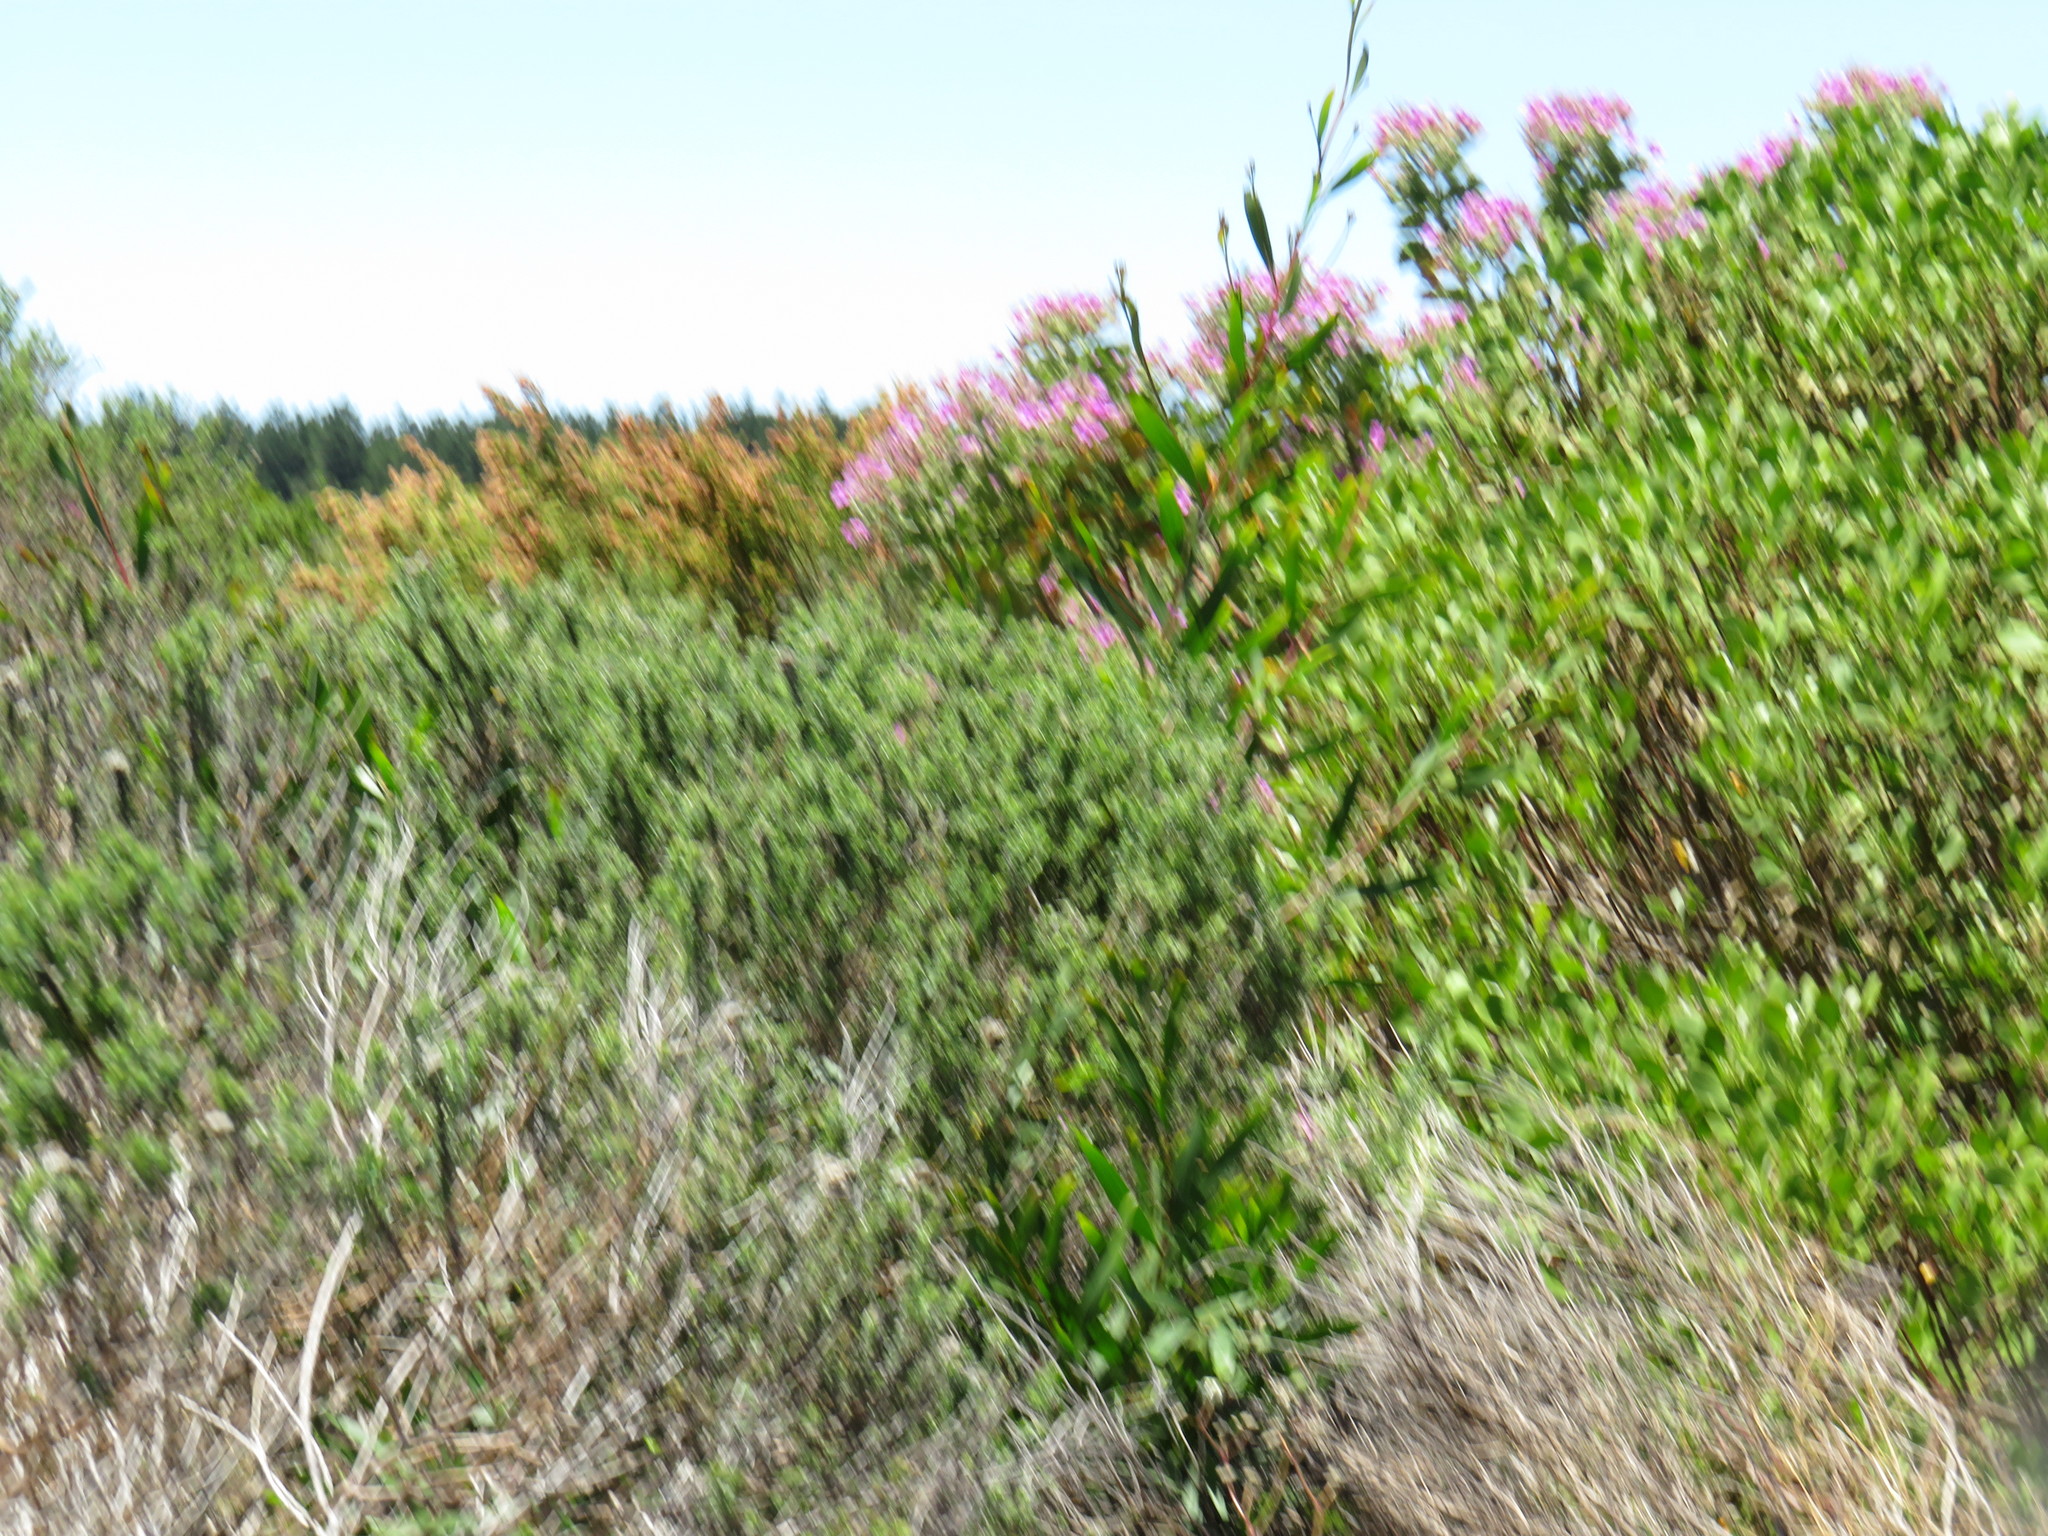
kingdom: Plantae
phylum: Tracheophyta
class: Magnoliopsida
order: Fabales
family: Fabaceae
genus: Acacia
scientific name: Acacia longifolia
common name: Sydney golden wattle
